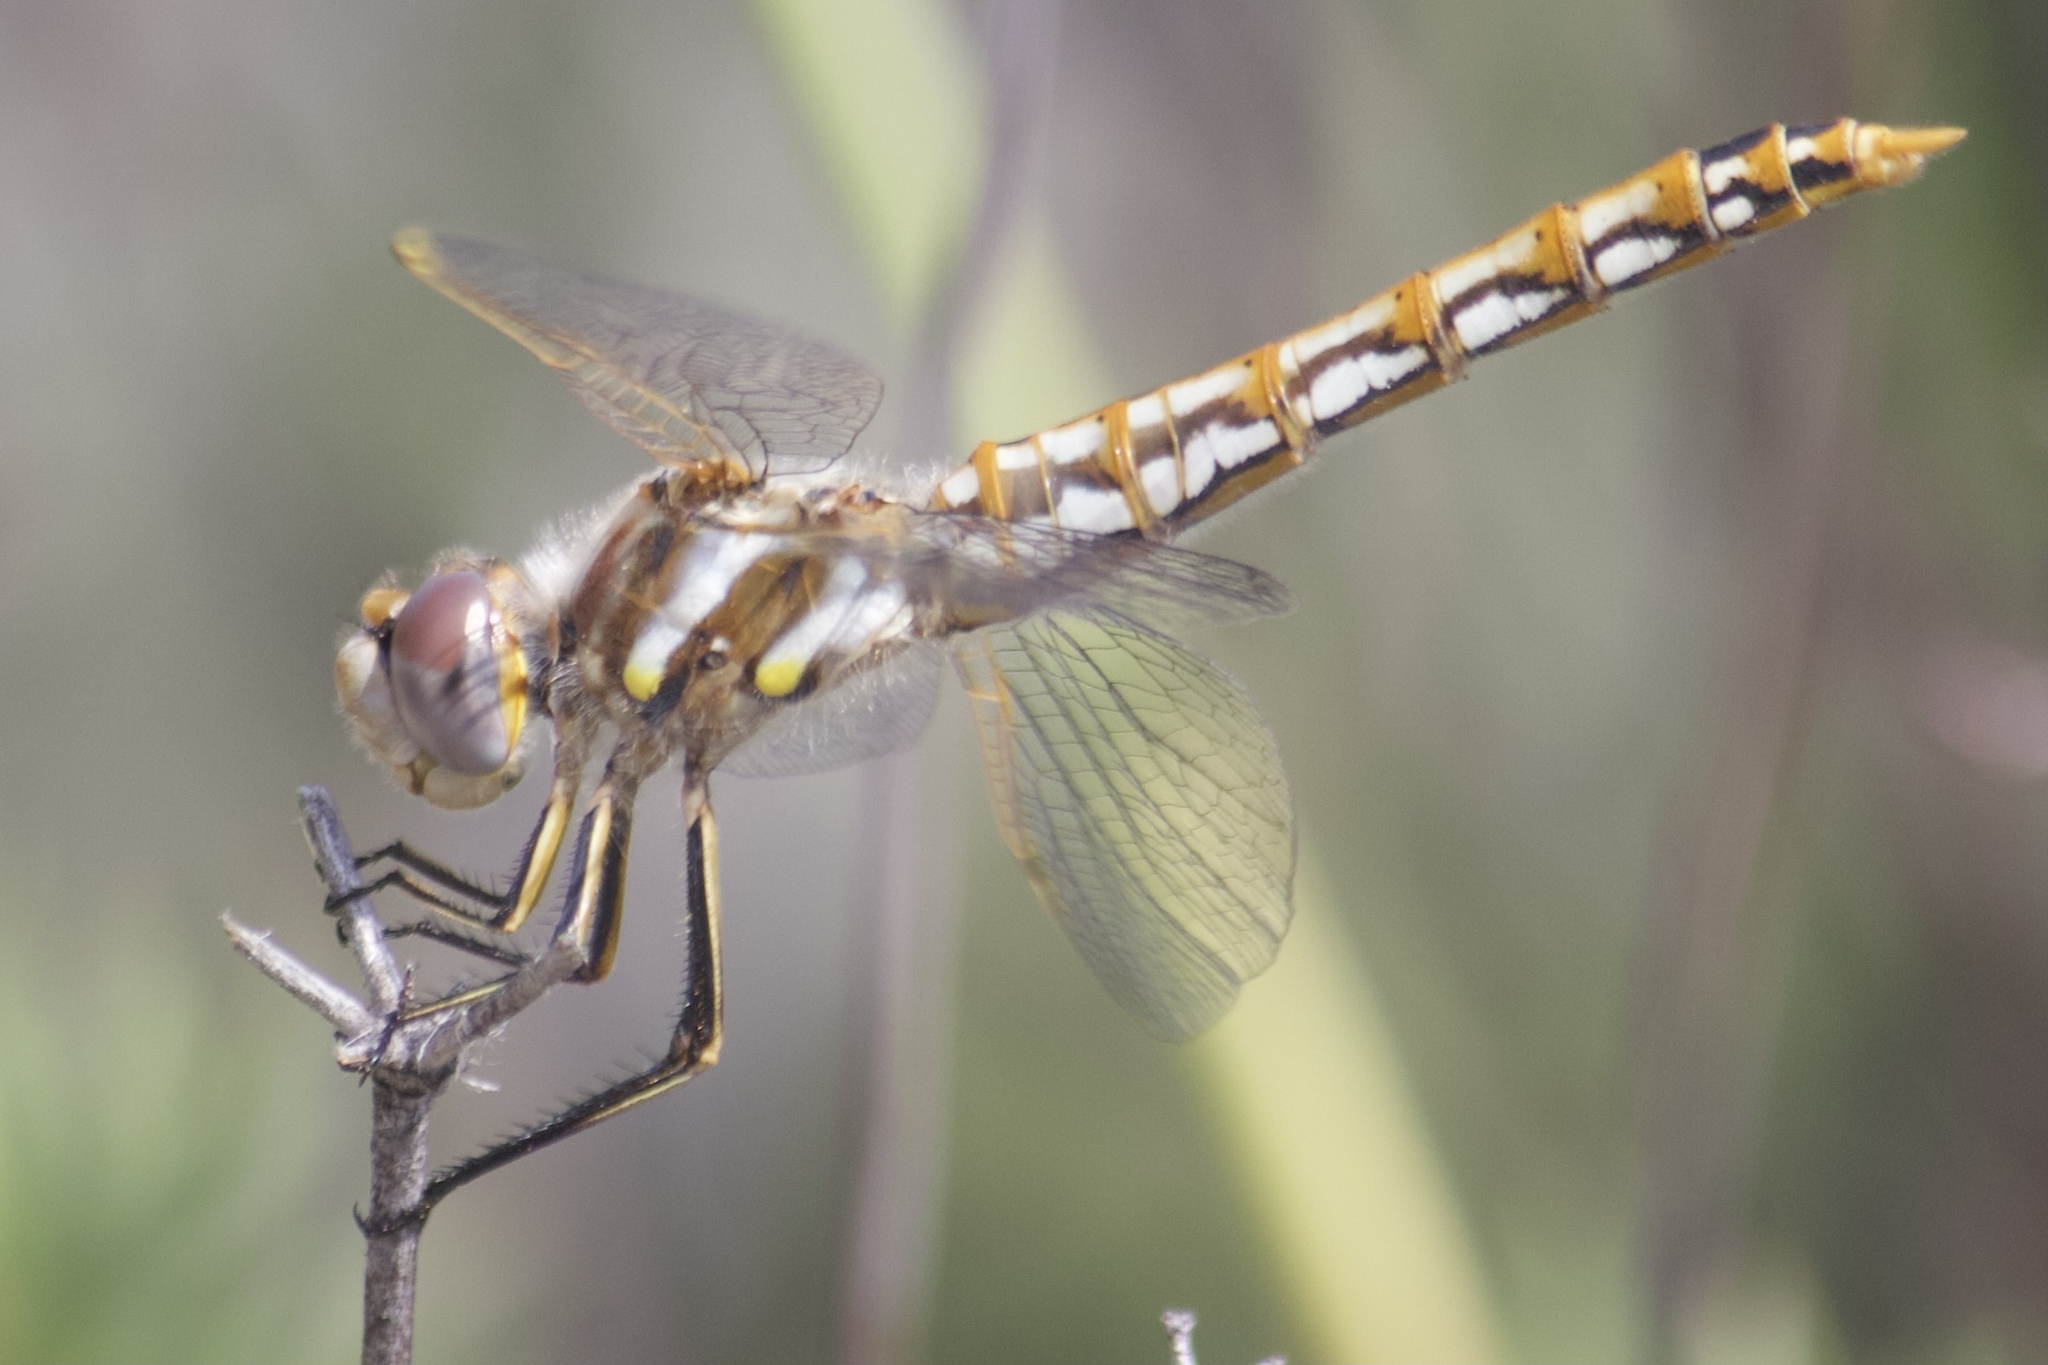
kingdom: Animalia
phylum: Arthropoda
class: Insecta
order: Odonata
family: Libellulidae
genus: Sympetrum
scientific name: Sympetrum corruptum
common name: Variegated meadowhawk
